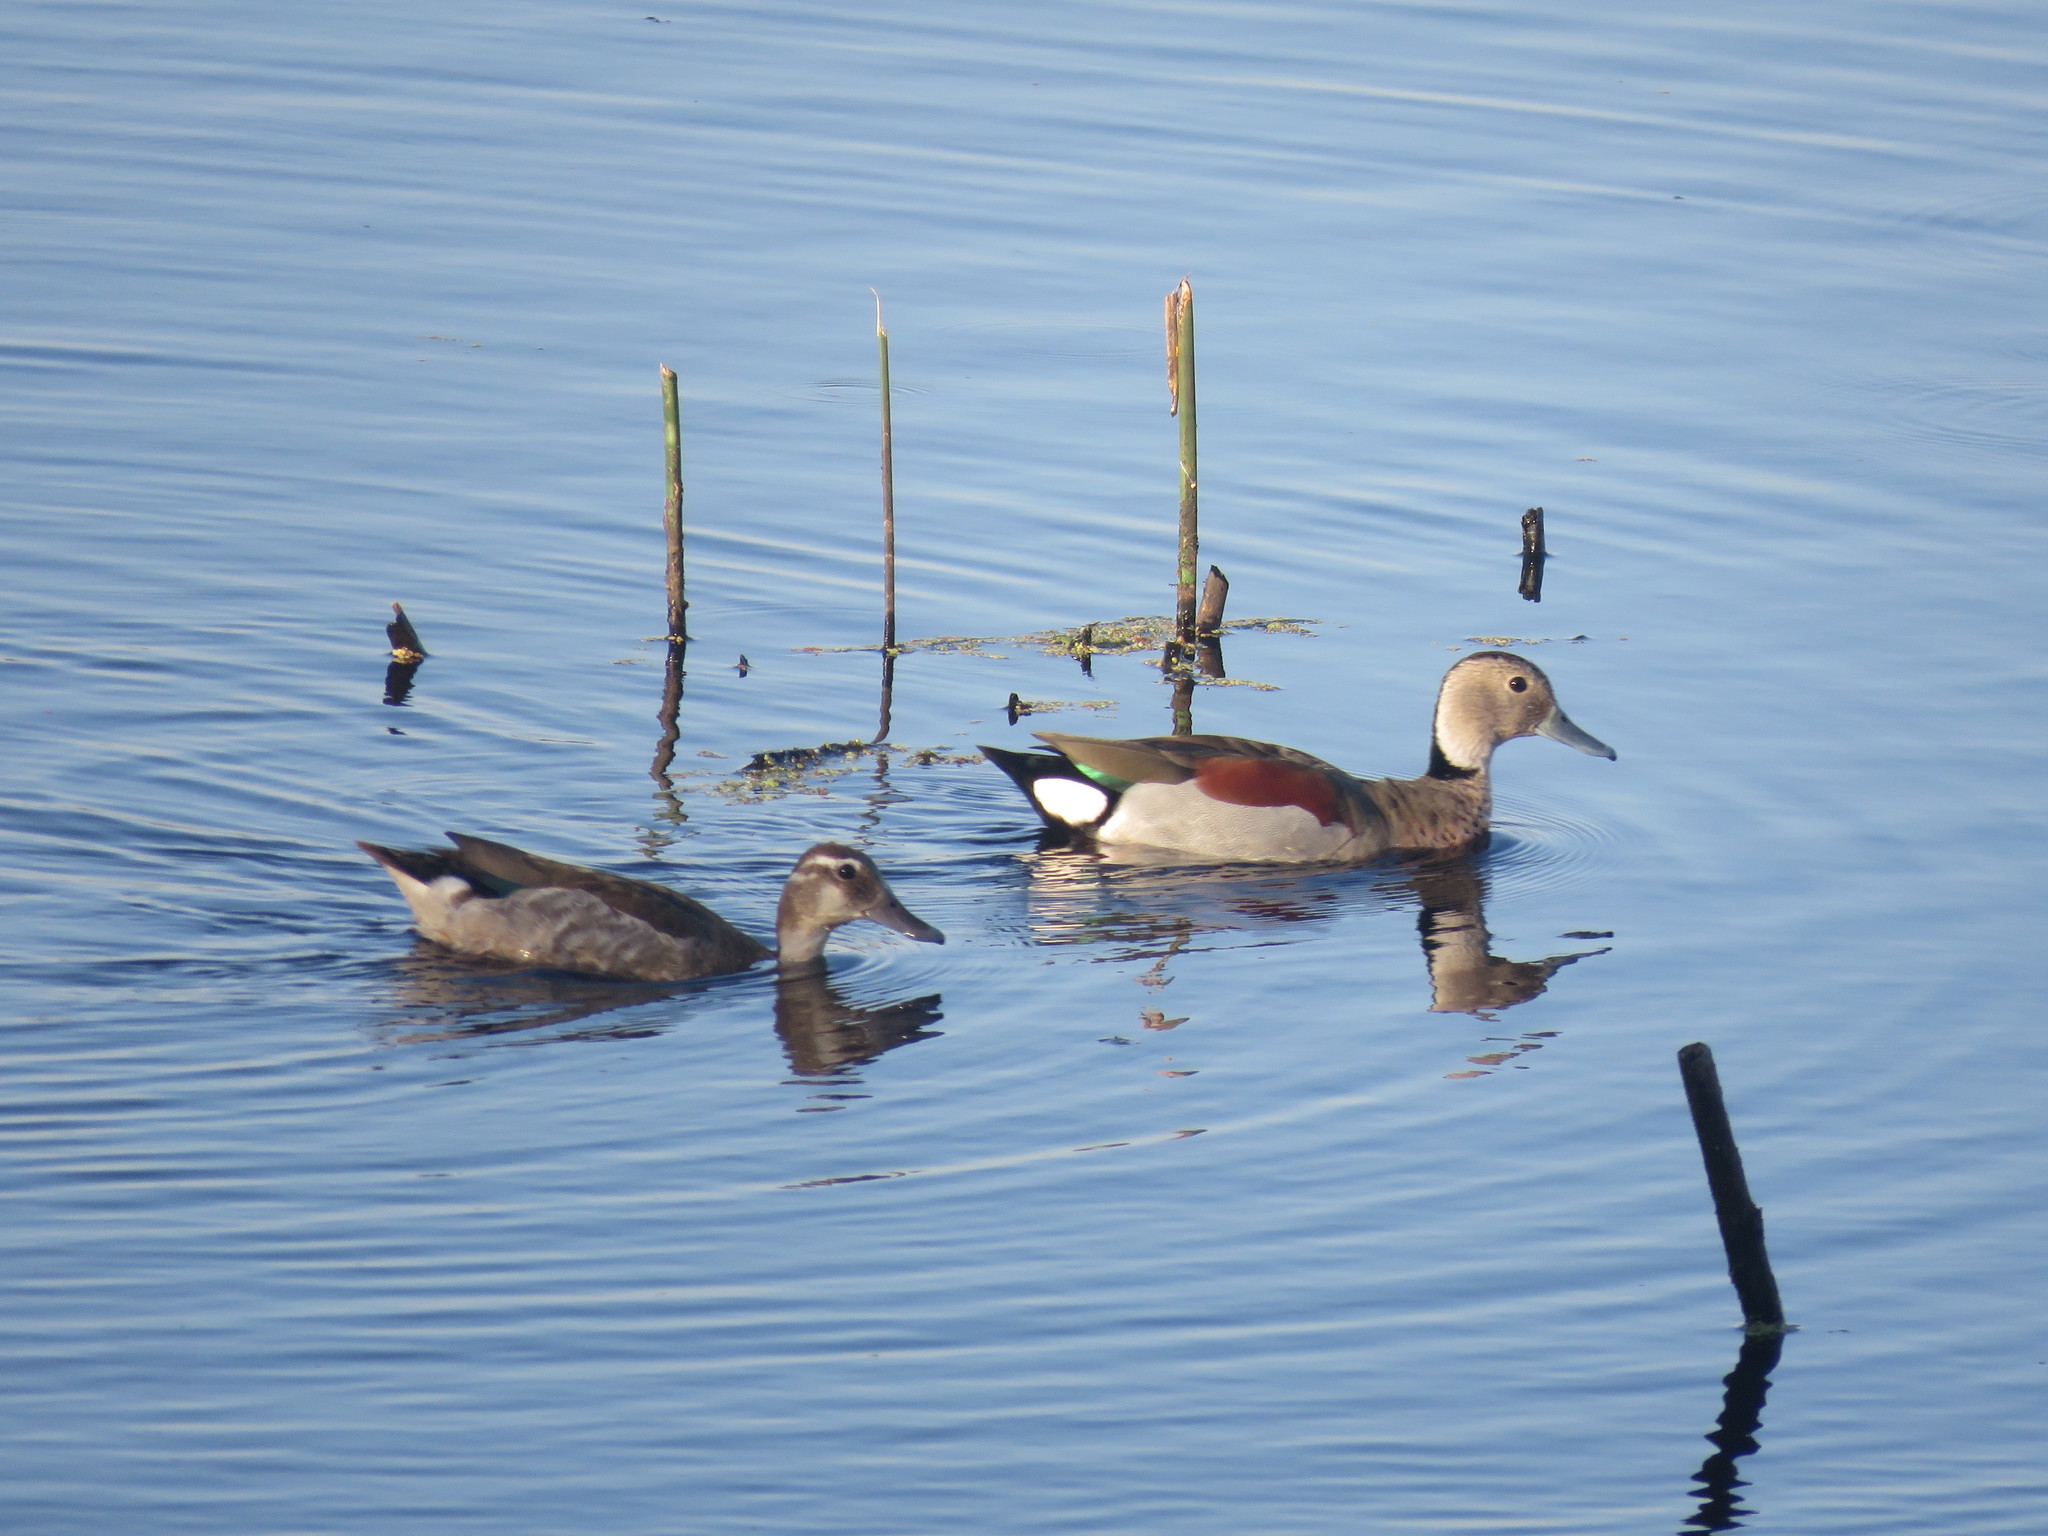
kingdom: Animalia
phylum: Chordata
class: Aves
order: Anseriformes
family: Anatidae
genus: Callonetta
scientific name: Callonetta leucophrys
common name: Ringed teal
